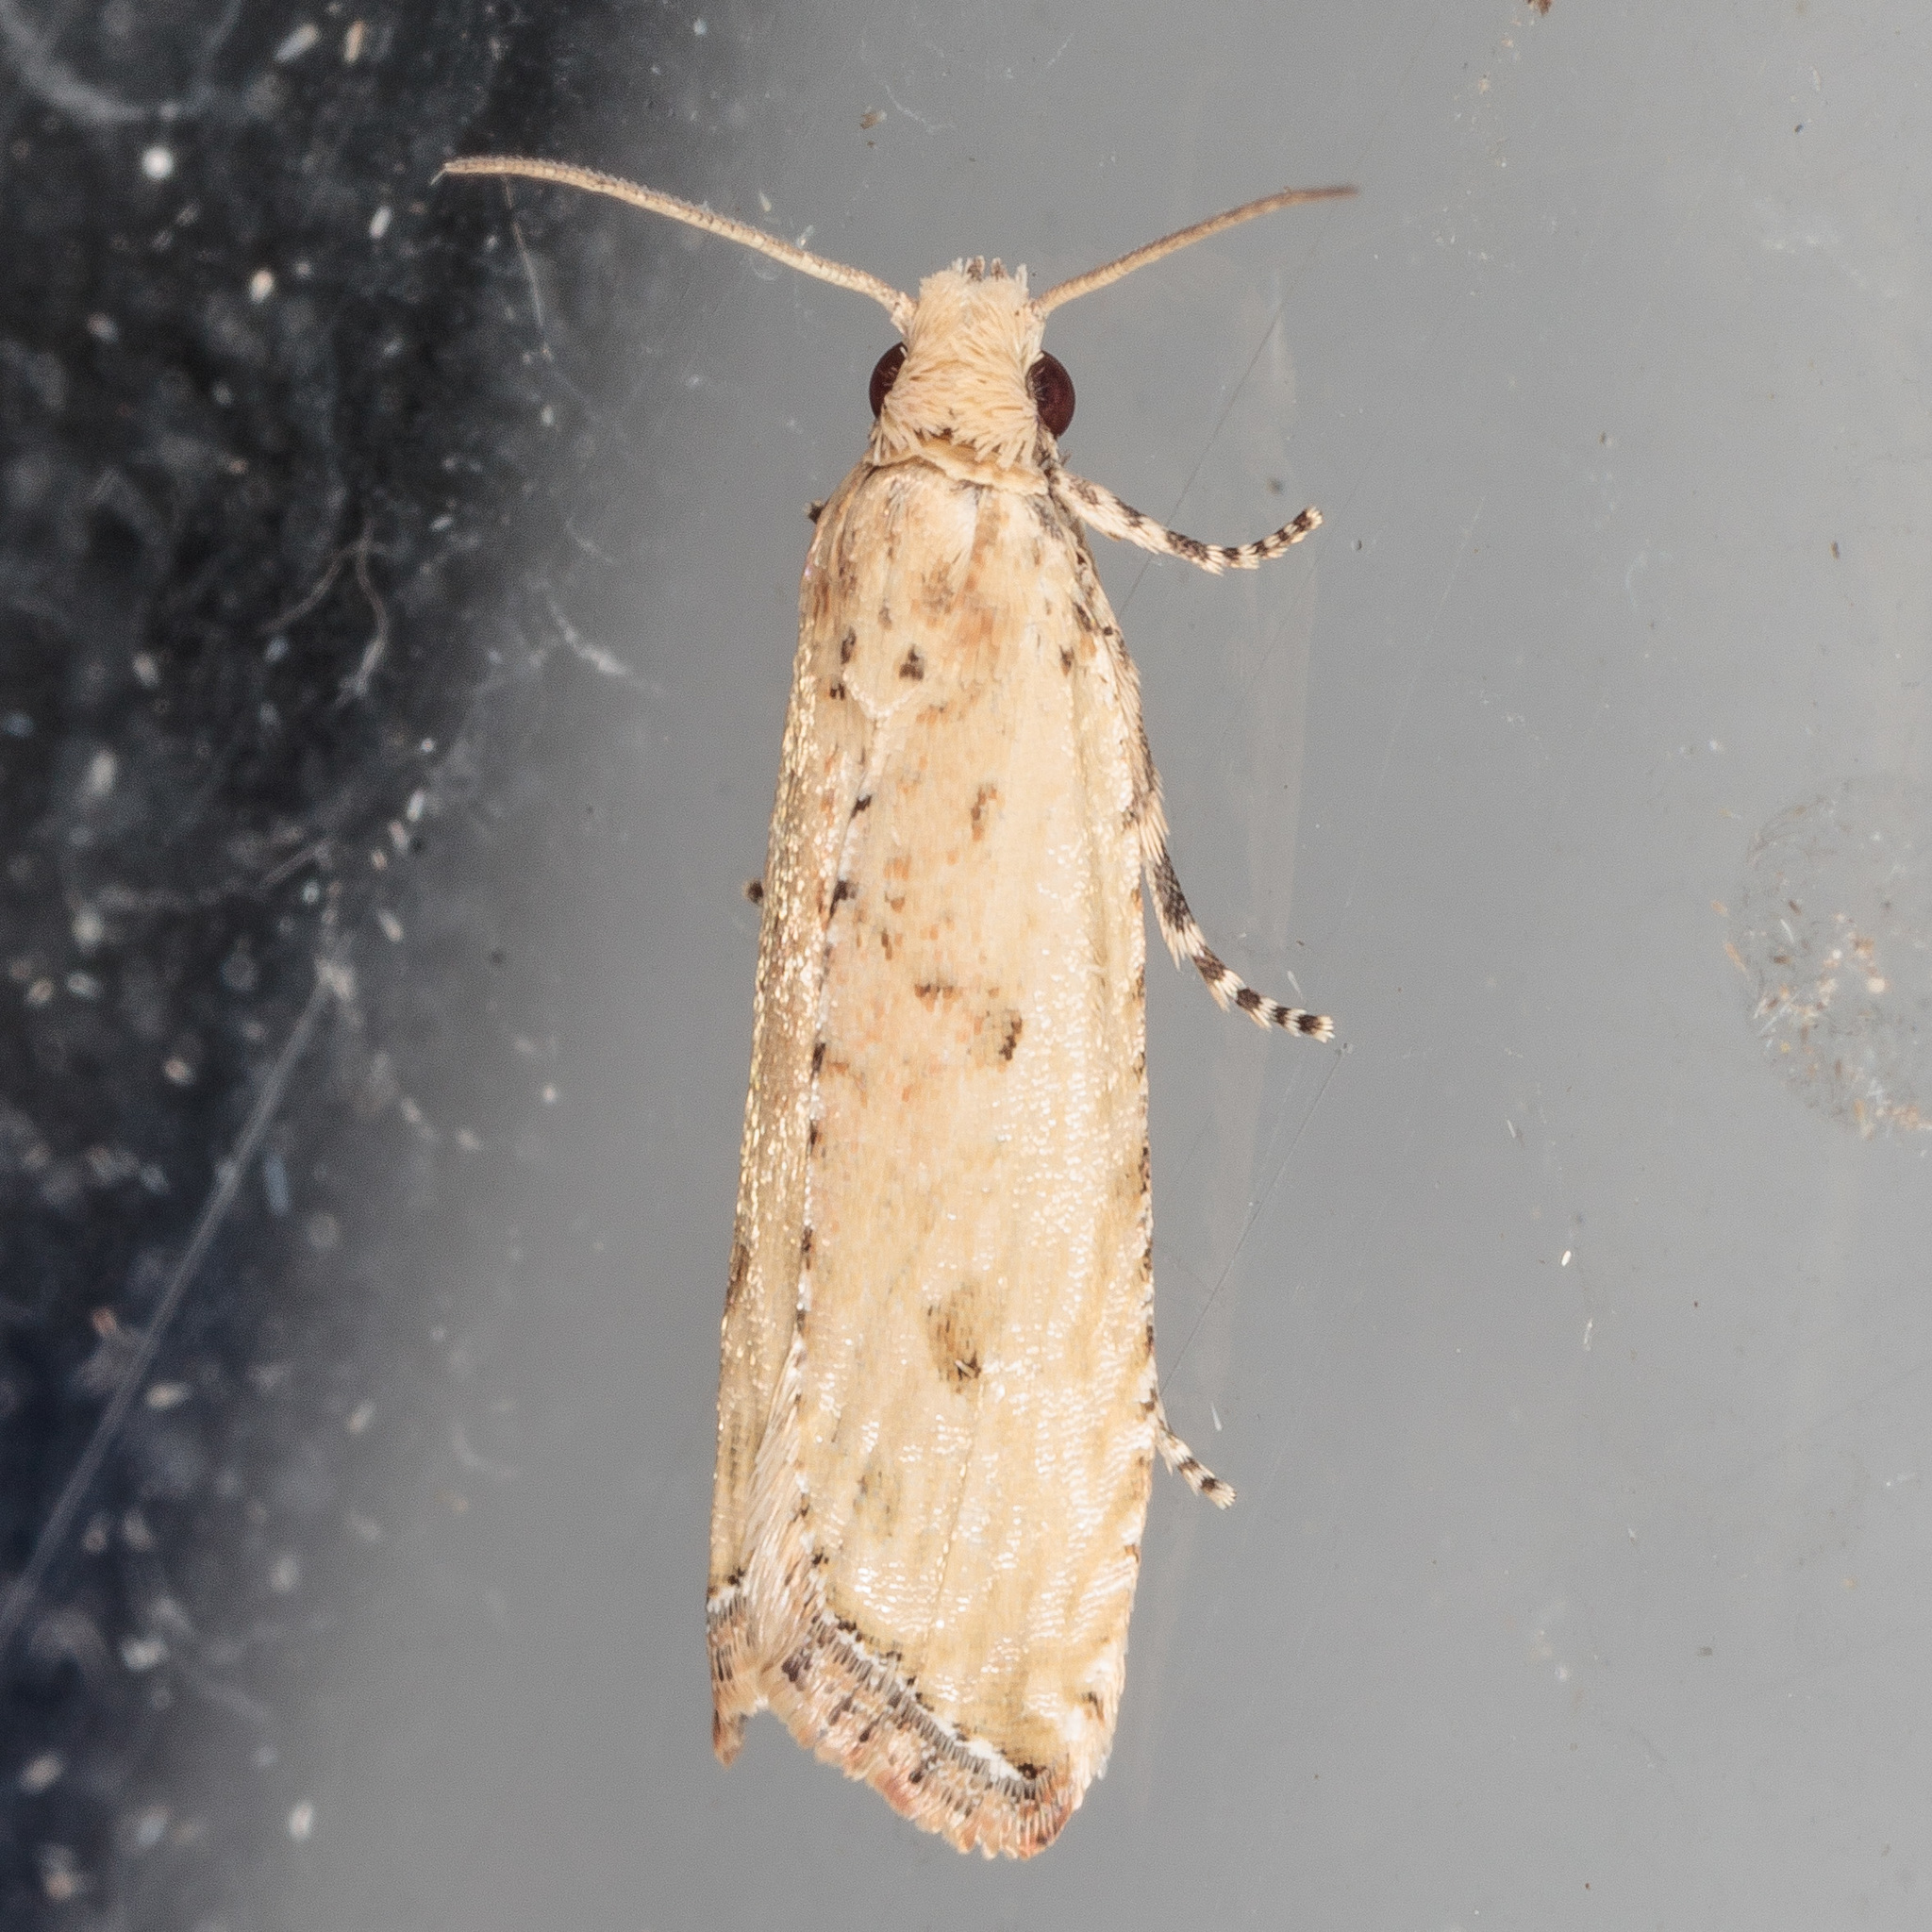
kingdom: Animalia
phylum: Arthropoda
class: Insecta
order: Lepidoptera
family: Tortricidae
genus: Bactra
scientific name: Bactra verutana
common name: Javelin moth
